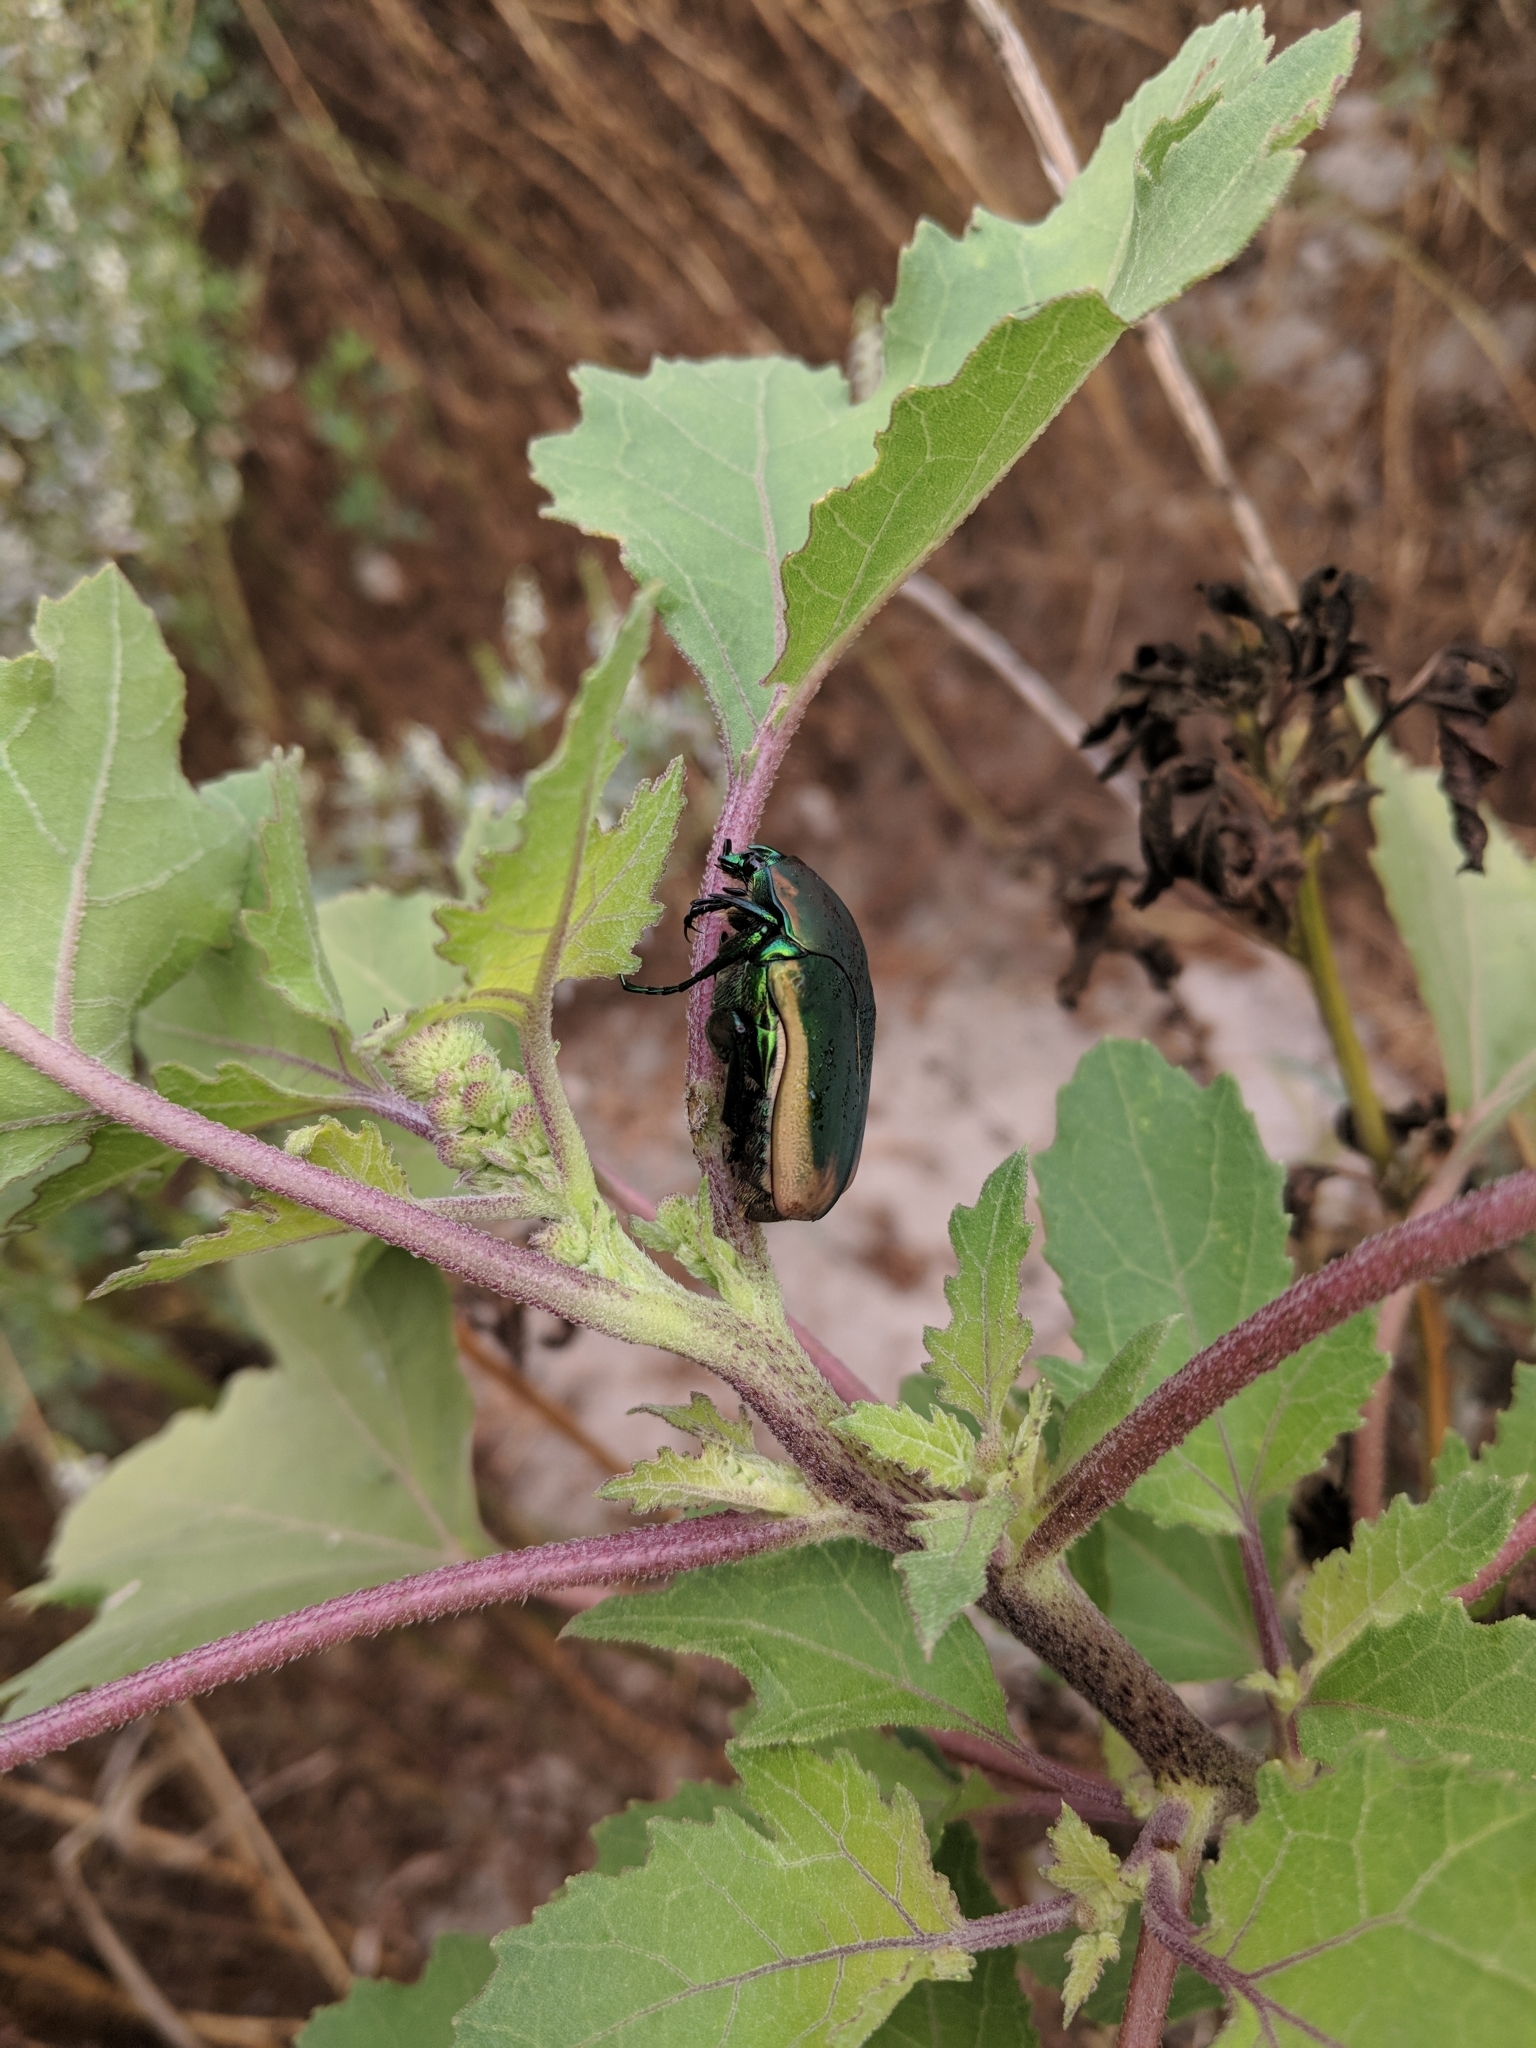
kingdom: Animalia
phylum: Arthropoda
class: Insecta
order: Coleoptera
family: Scarabaeidae
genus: Cotinis
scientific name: Cotinis mutabilis
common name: Figeater beetle
